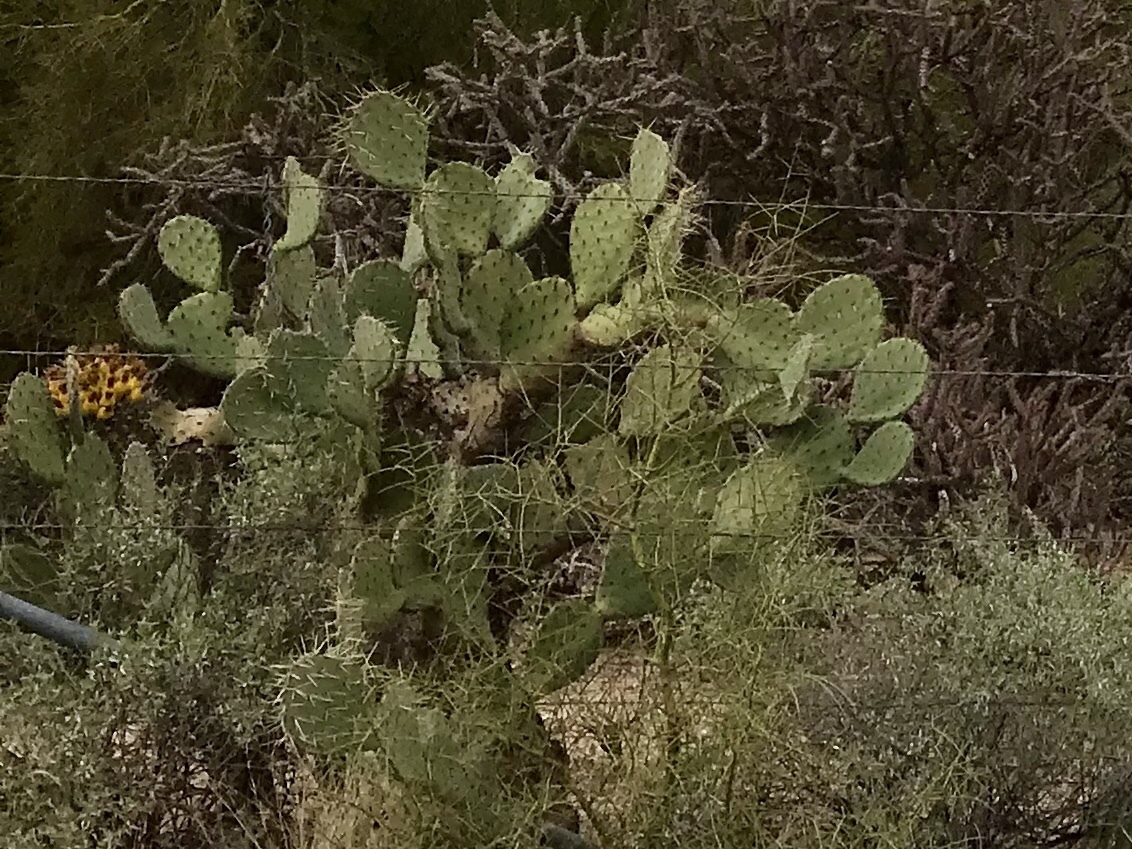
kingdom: Plantae
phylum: Tracheophyta
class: Magnoliopsida
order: Caryophyllales
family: Cactaceae
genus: Opuntia
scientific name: Opuntia engelmannii
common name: Cactus-apple
